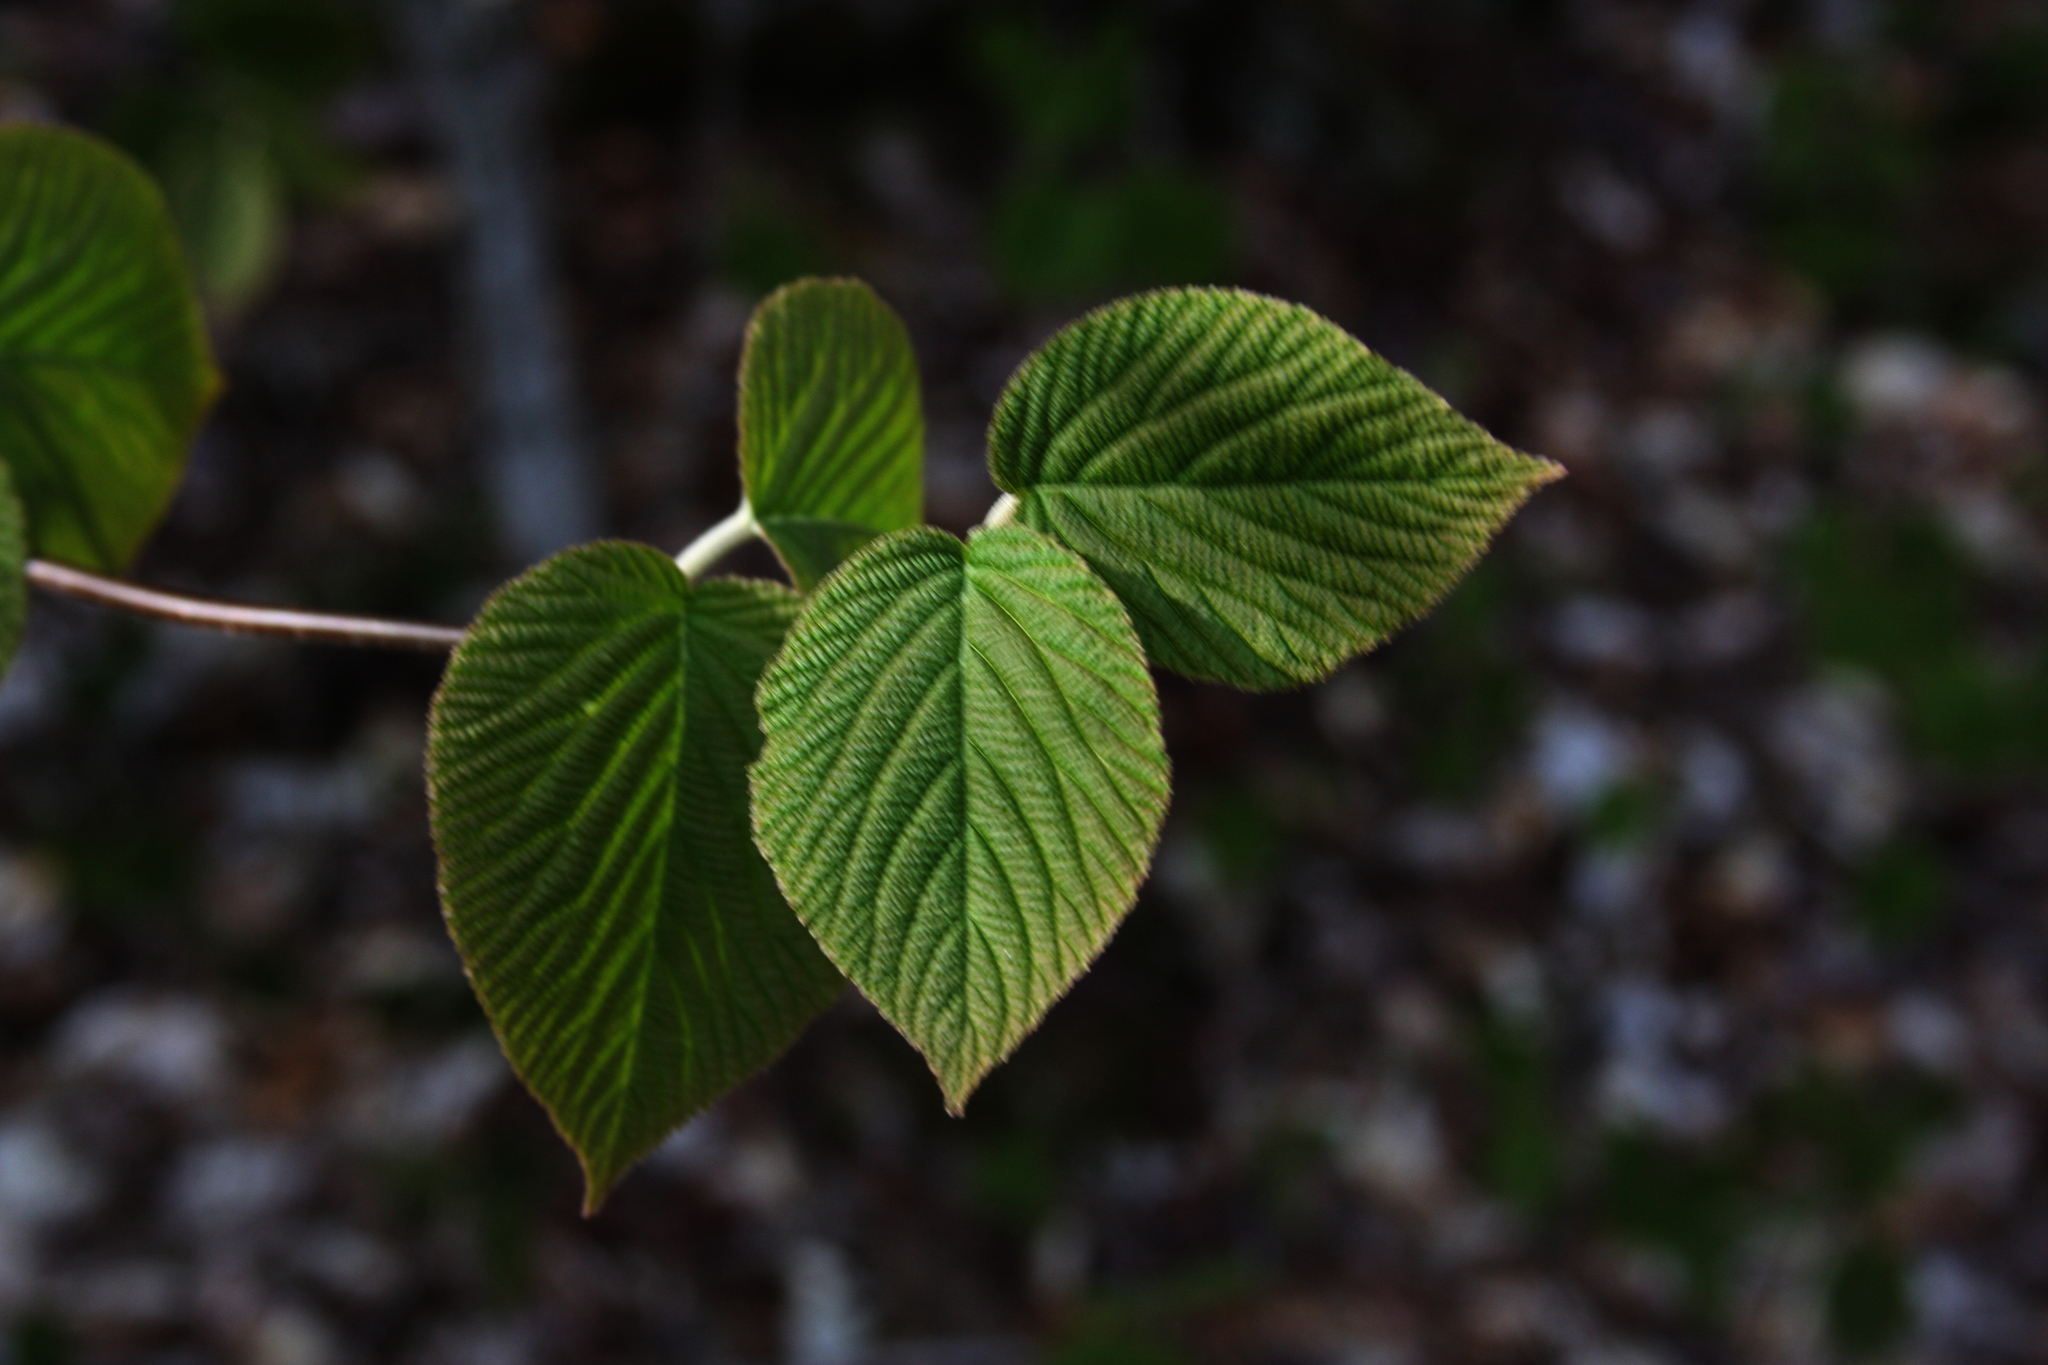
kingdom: Plantae
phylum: Tracheophyta
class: Magnoliopsida
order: Dipsacales
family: Viburnaceae
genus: Viburnum
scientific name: Viburnum lantanoides
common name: Hobblebush
